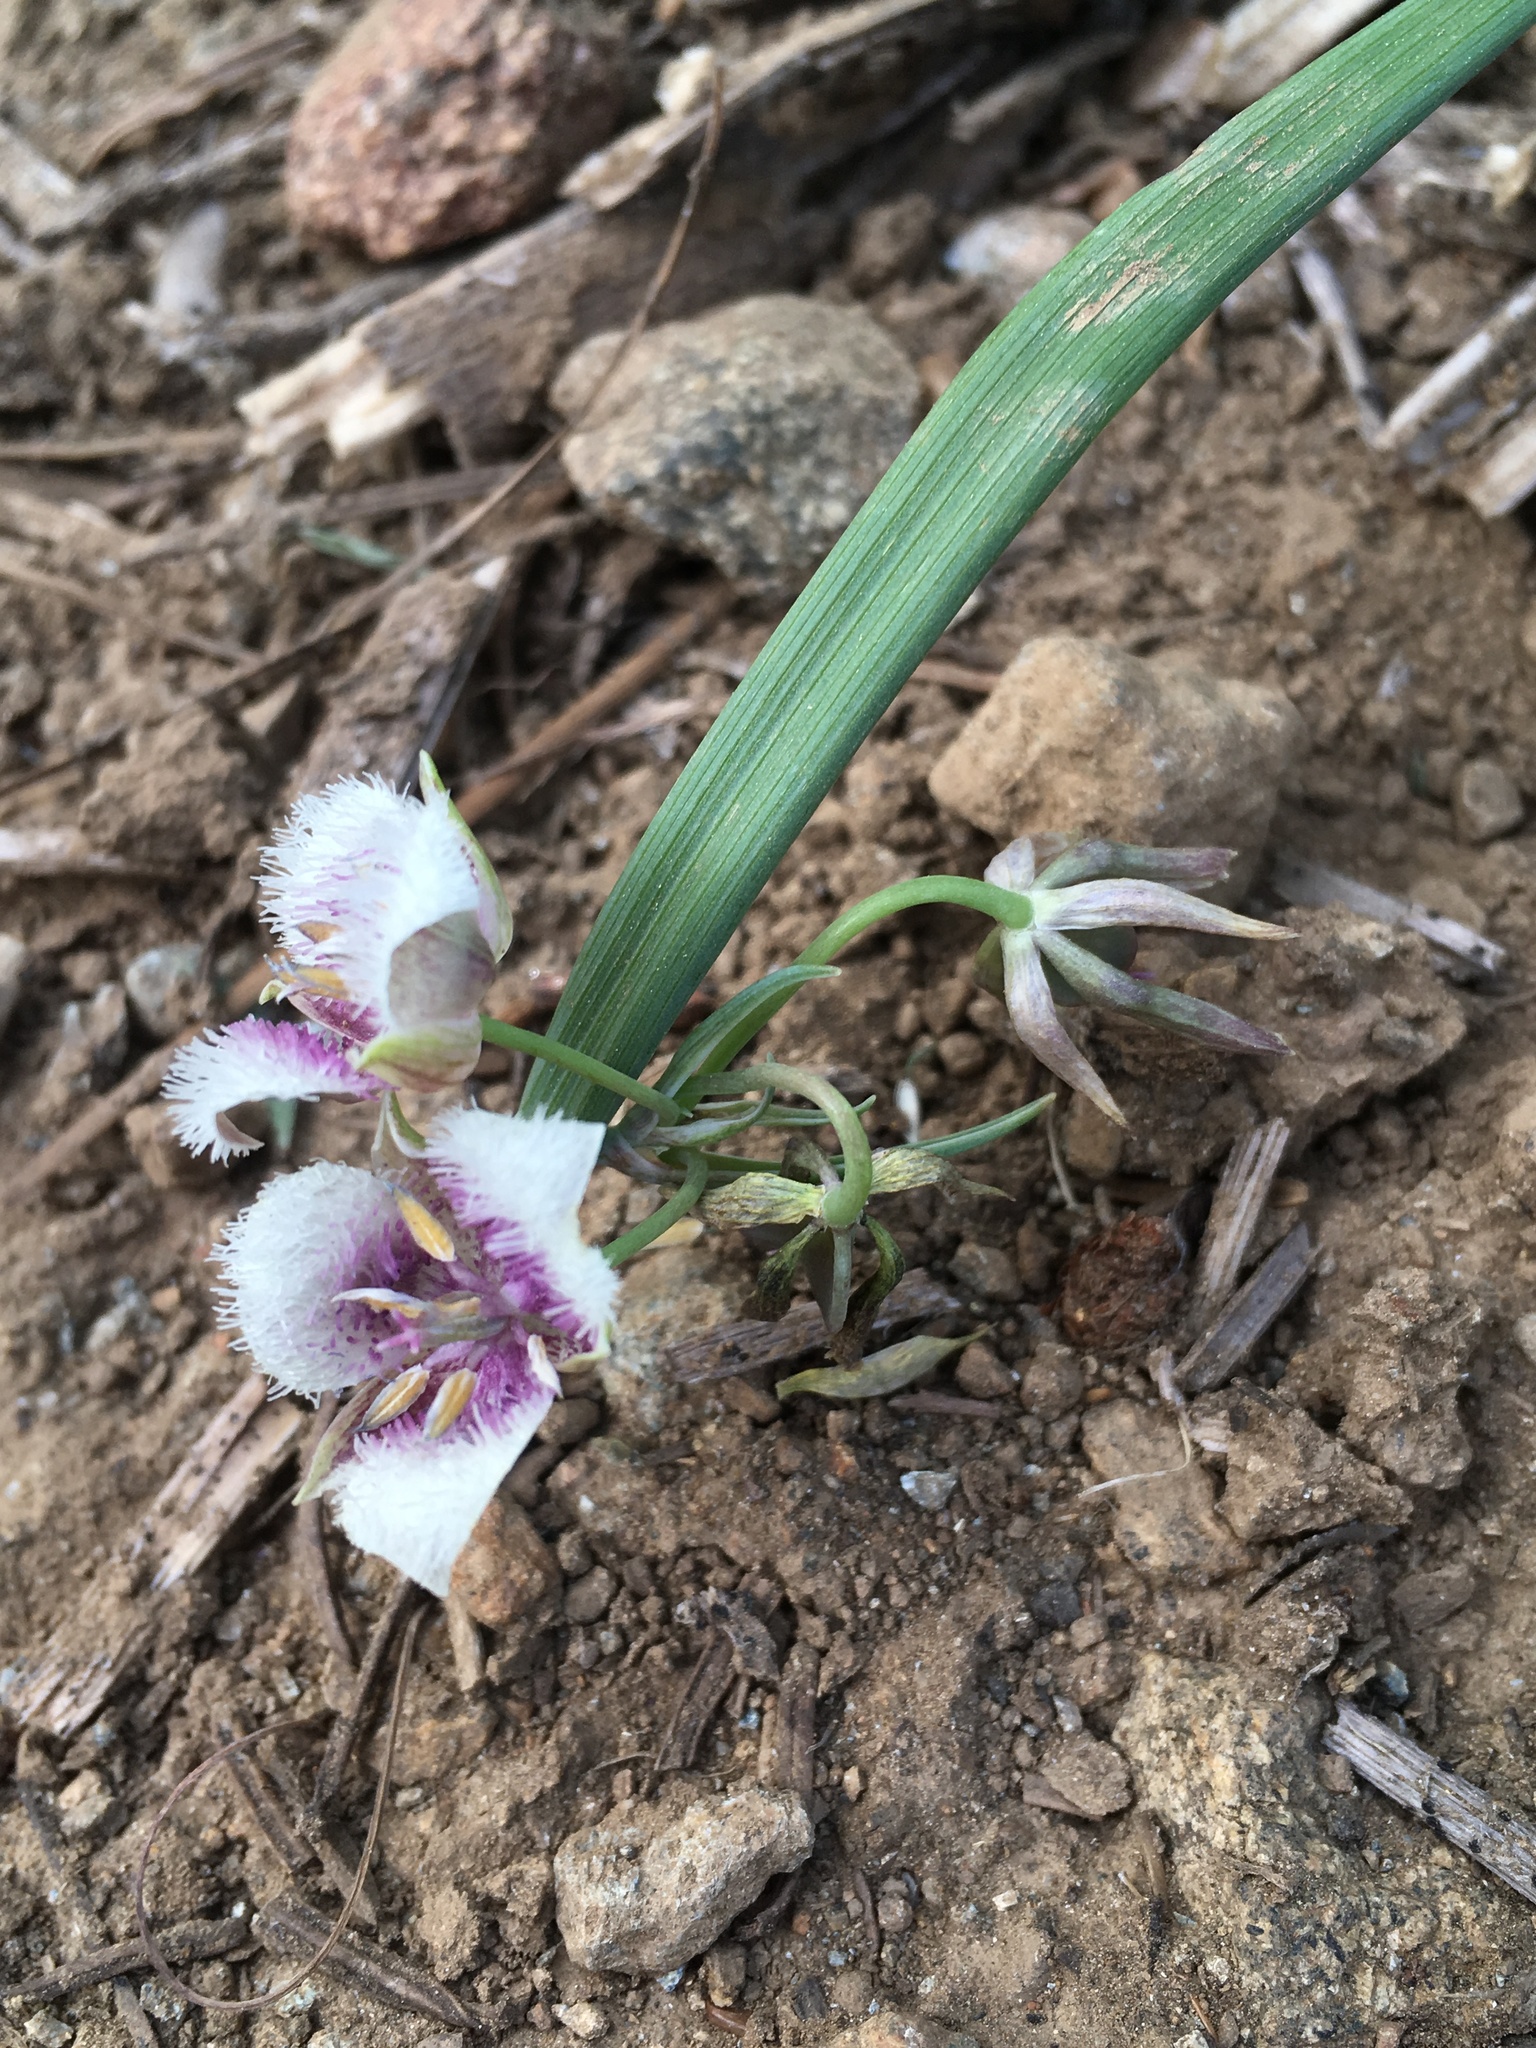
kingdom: Plantae
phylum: Tracheophyta
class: Liliopsida
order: Liliales
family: Liliaceae
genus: Calochortus
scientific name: Calochortus elegans
